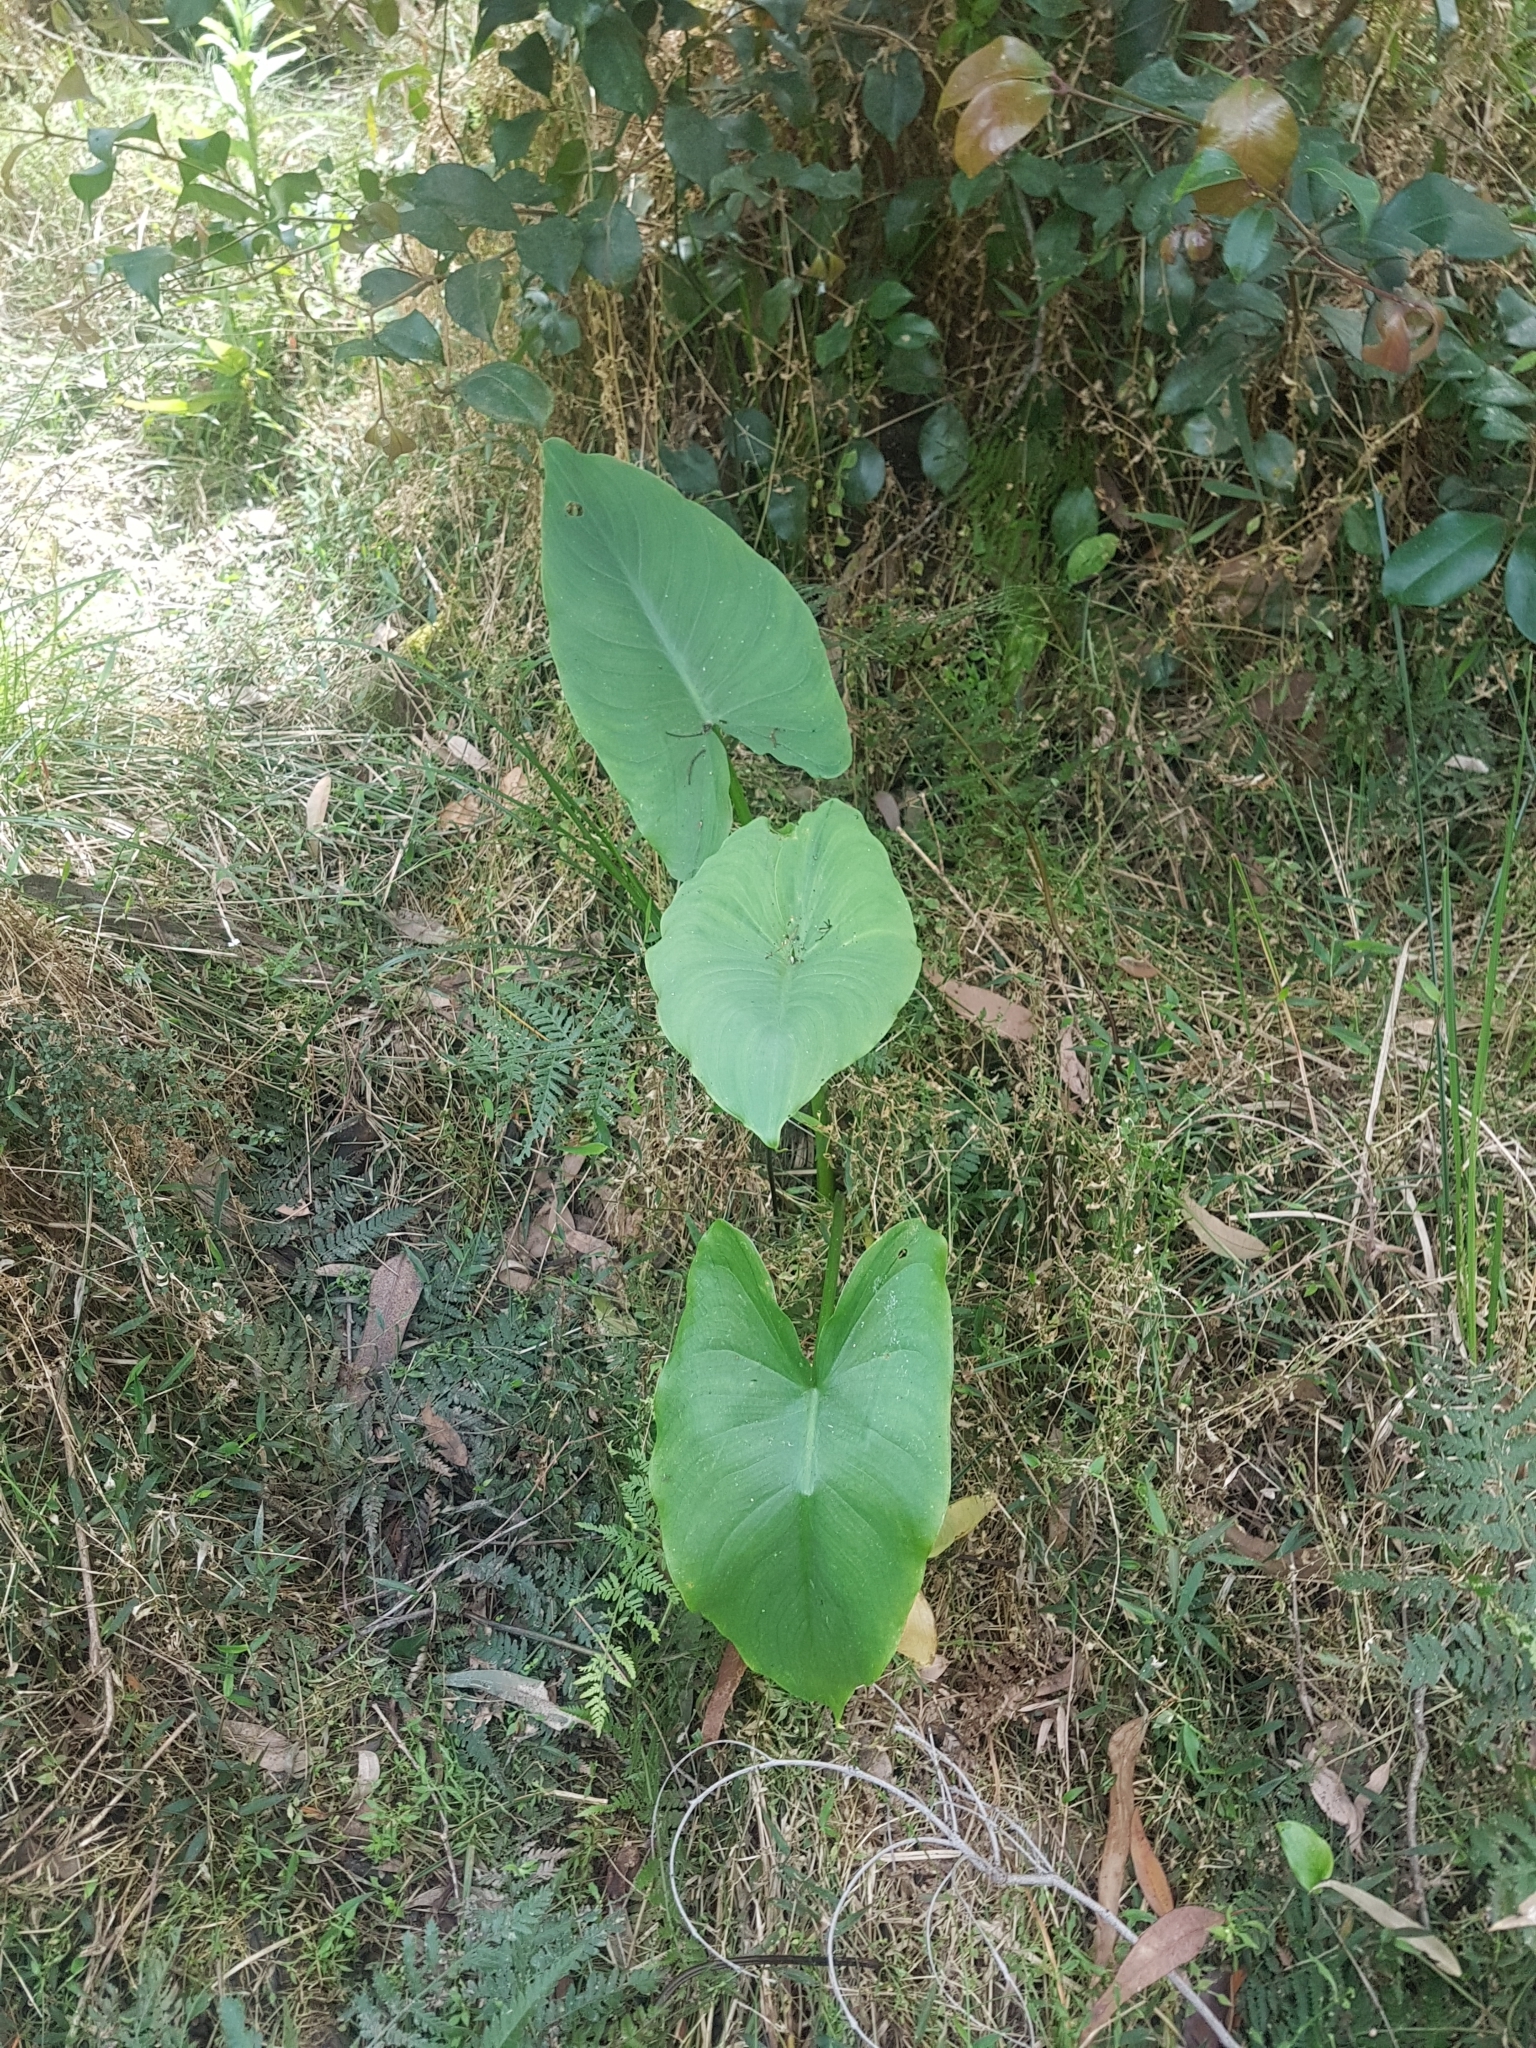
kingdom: Plantae
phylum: Tracheophyta
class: Liliopsida
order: Alismatales
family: Araceae
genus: Zantedeschia
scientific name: Zantedeschia aethiopica
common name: Altar-lily
